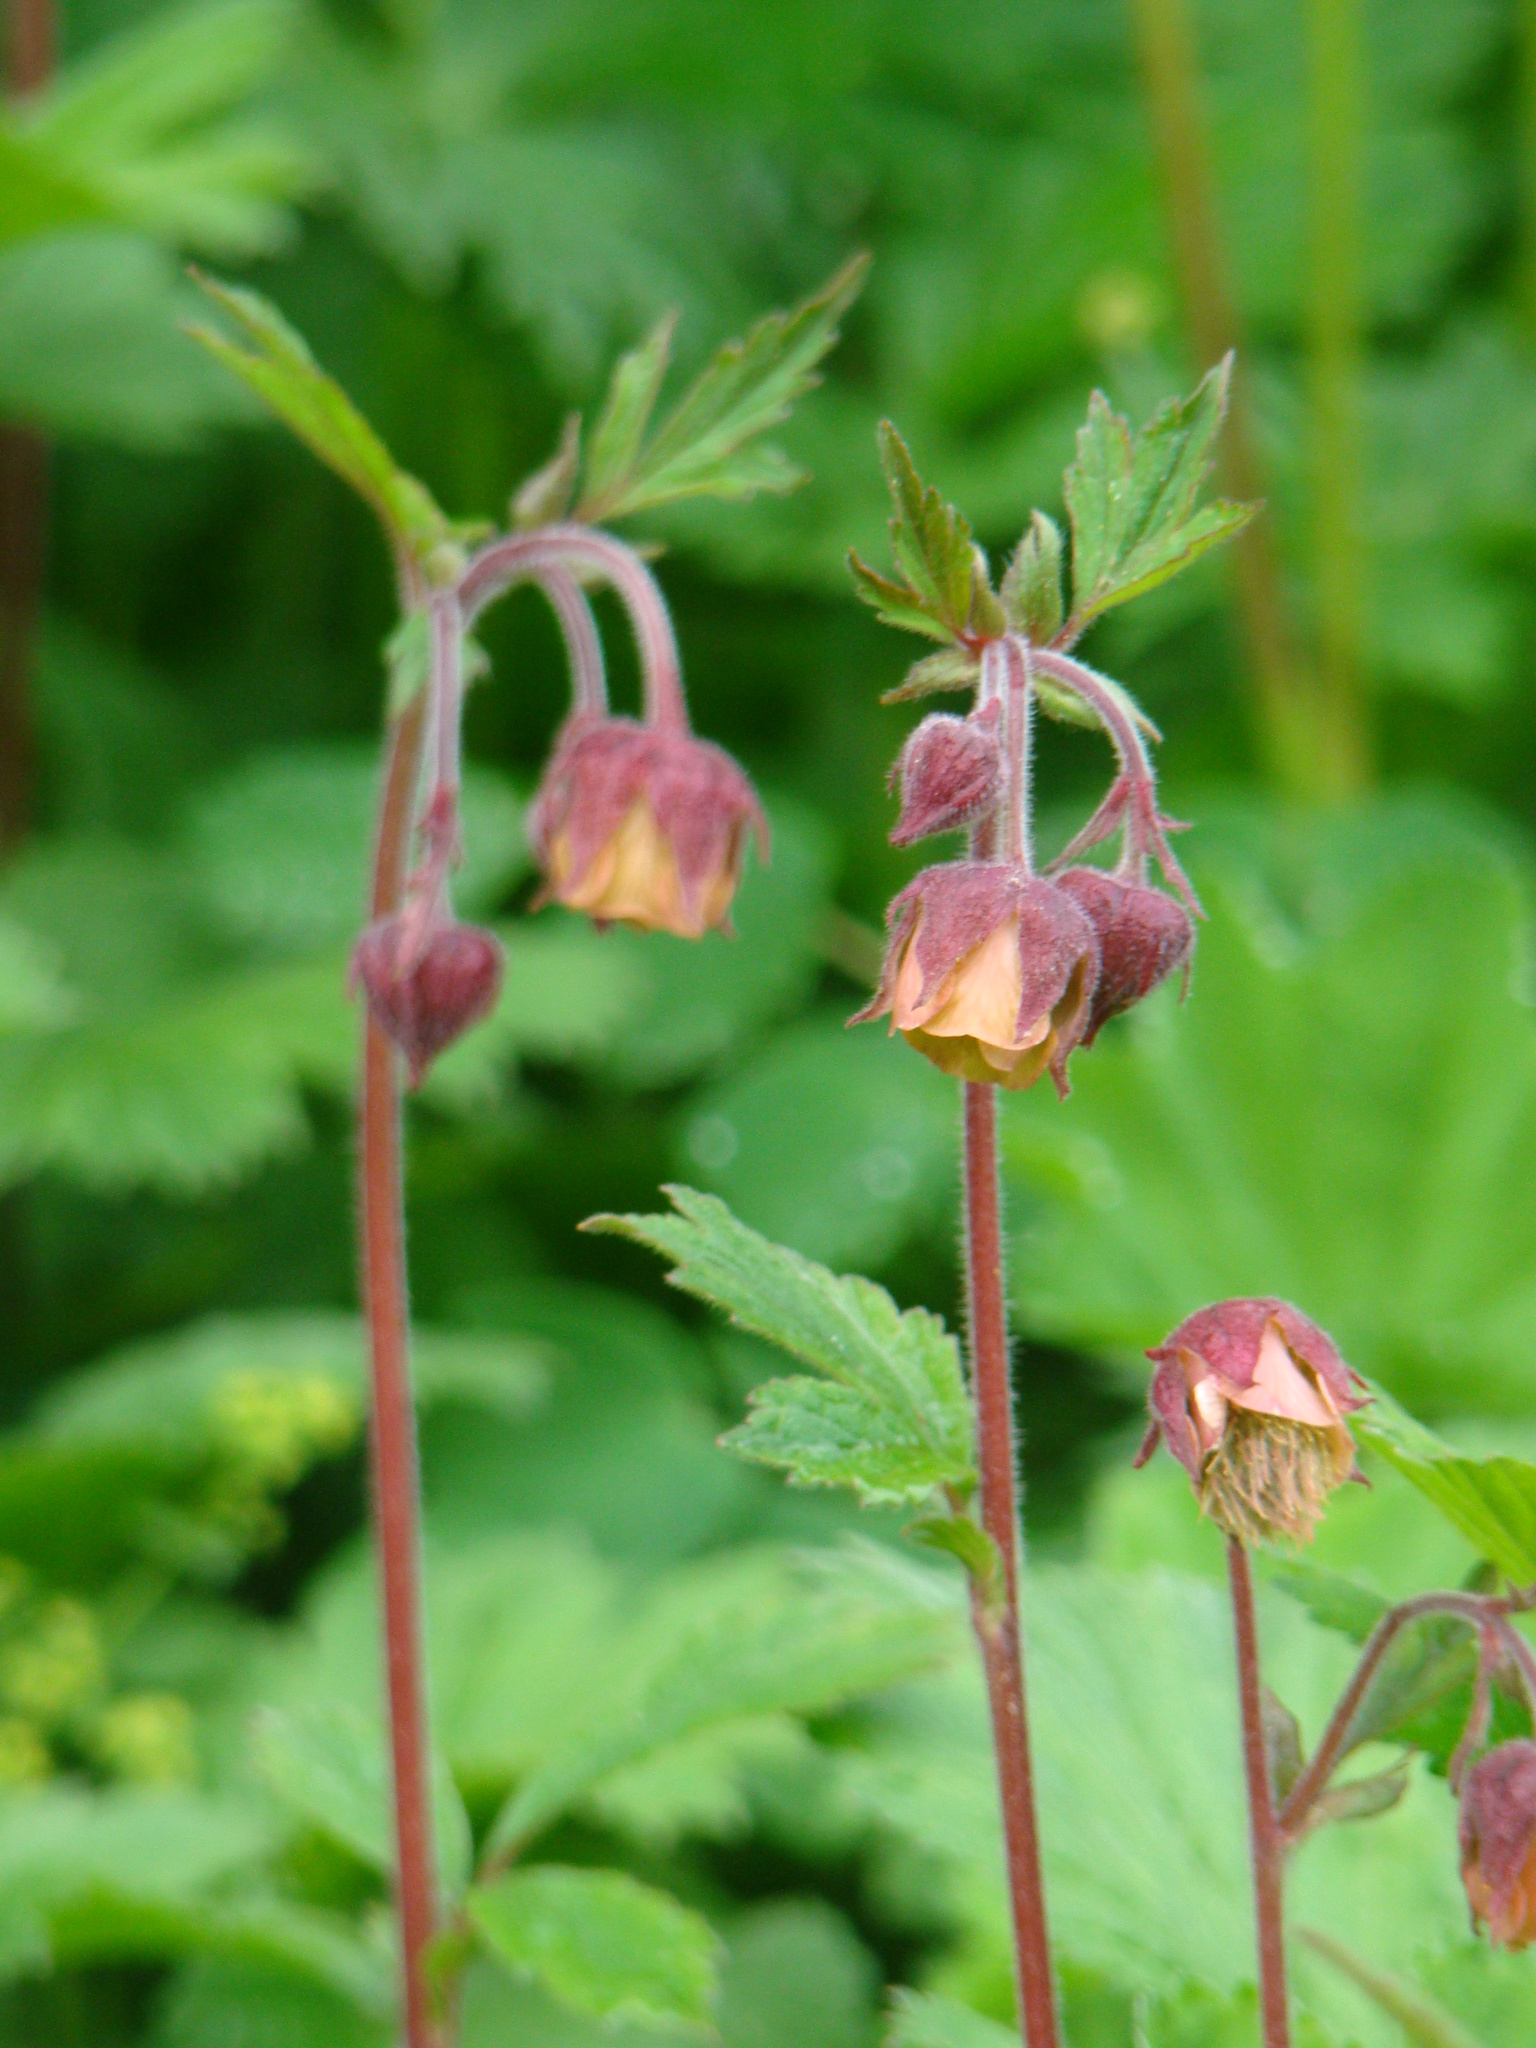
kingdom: Plantae
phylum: Tracheophyta
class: Magnoliopsida
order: Rosales
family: Rosaceae
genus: Geum
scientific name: Geum rivale
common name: Water avens
